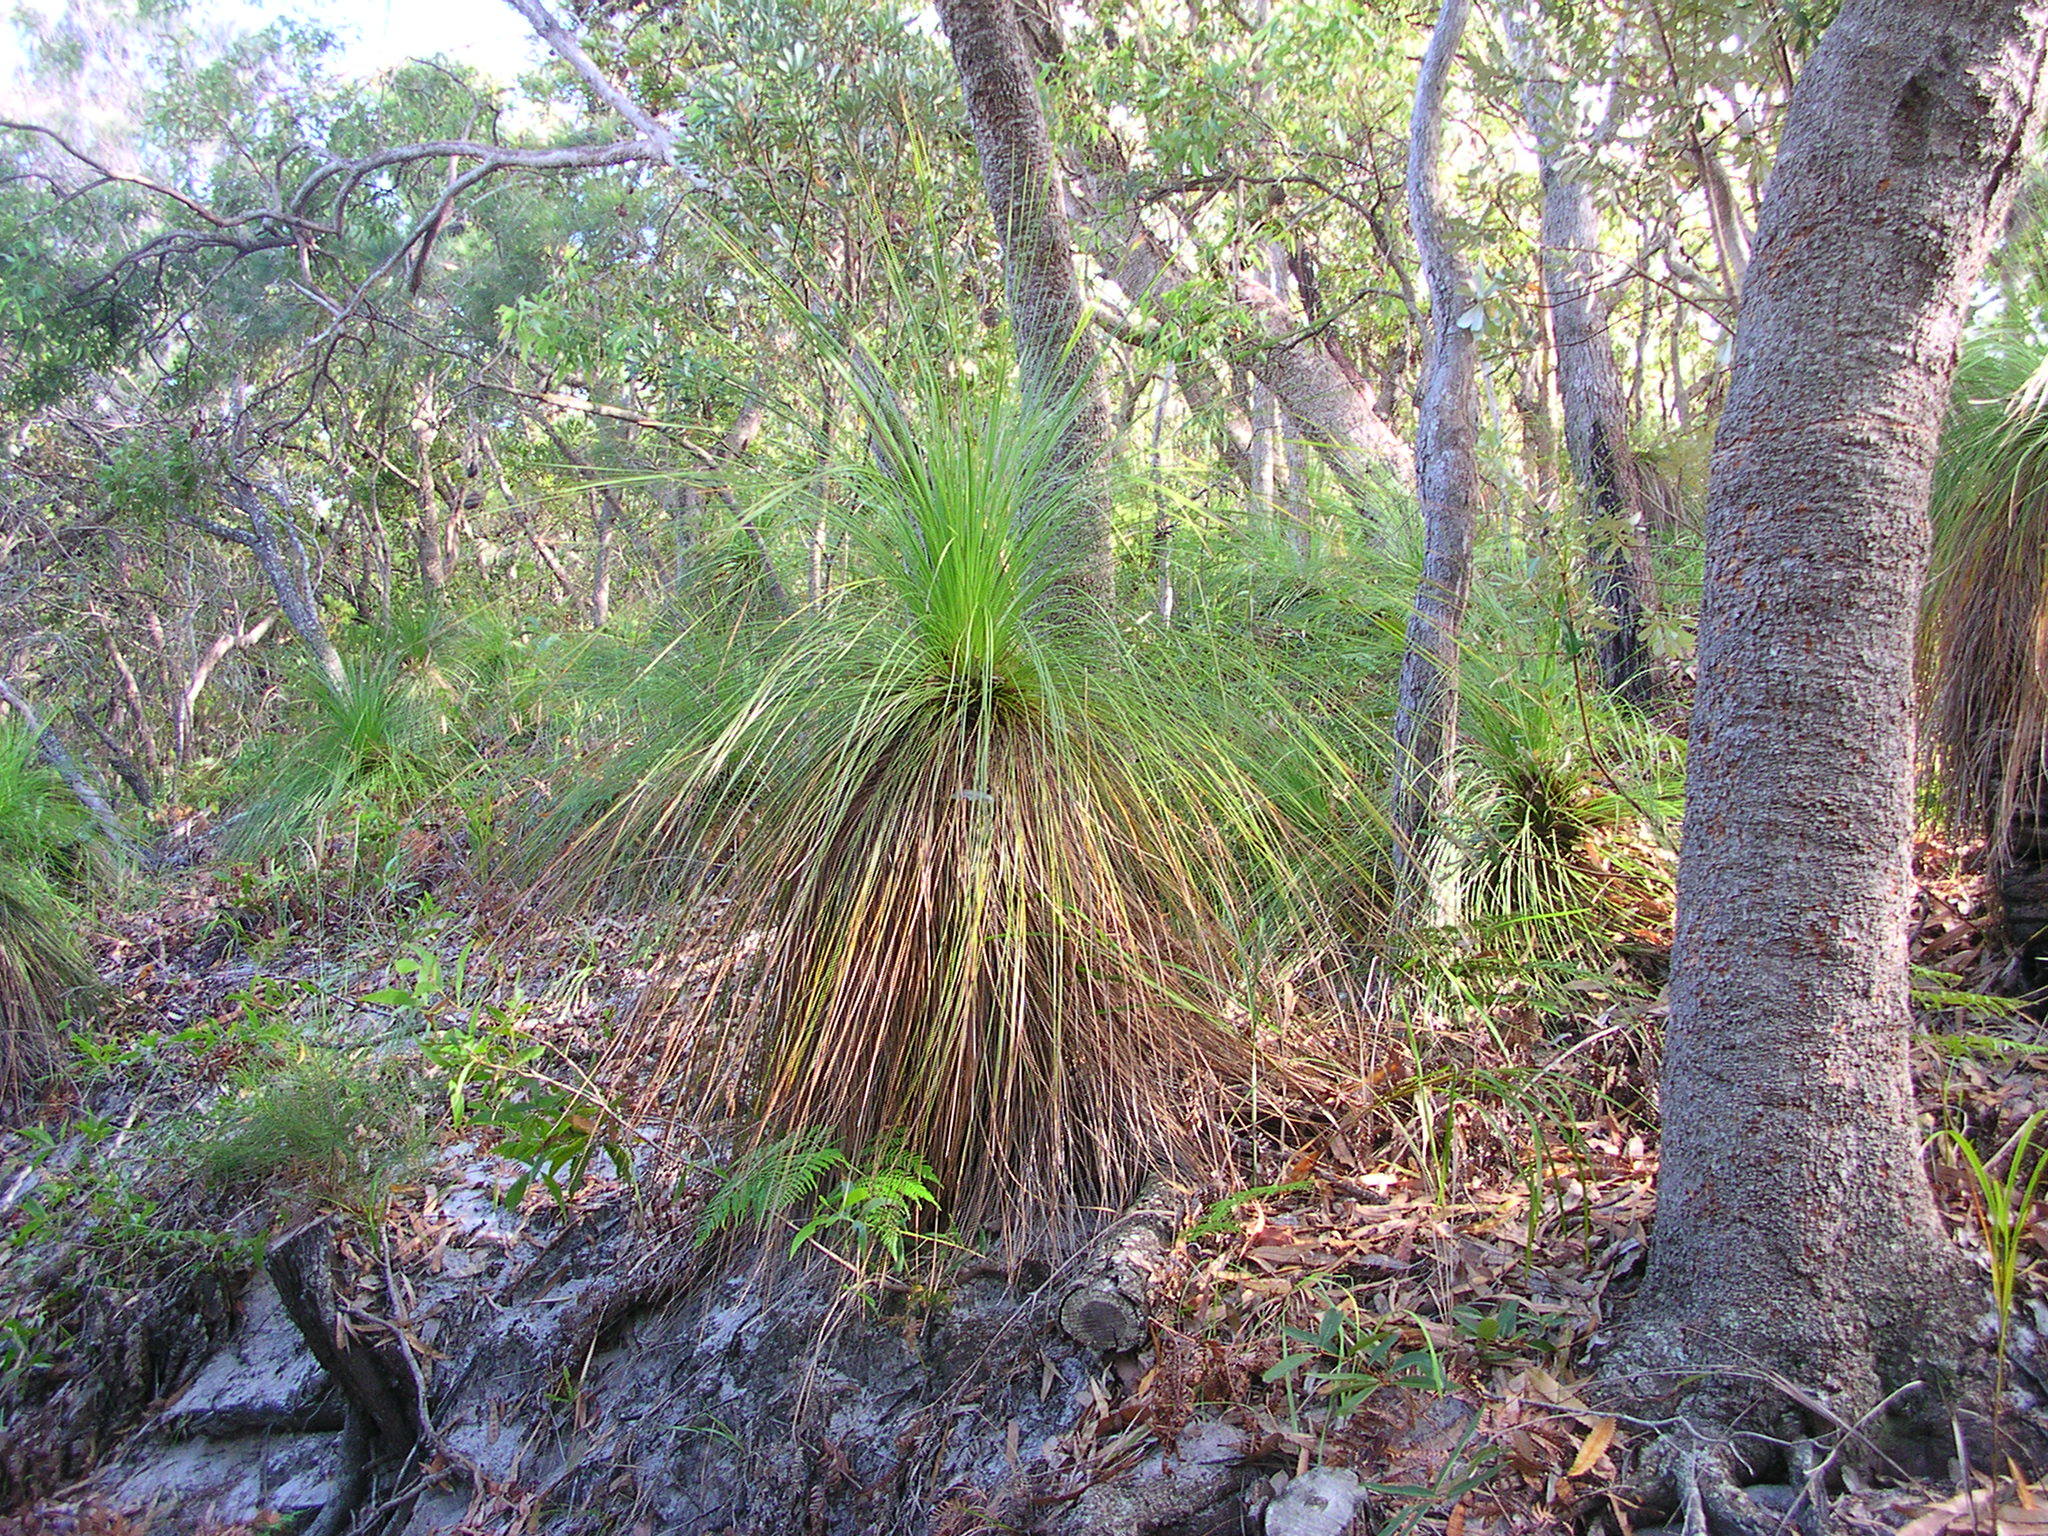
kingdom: Plantae
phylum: Tracheophyta
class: Liliopsida
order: Asparagales
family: Asphodelaceae
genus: Xanthorrhoea
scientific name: Xanthorrhoea johnsonii
